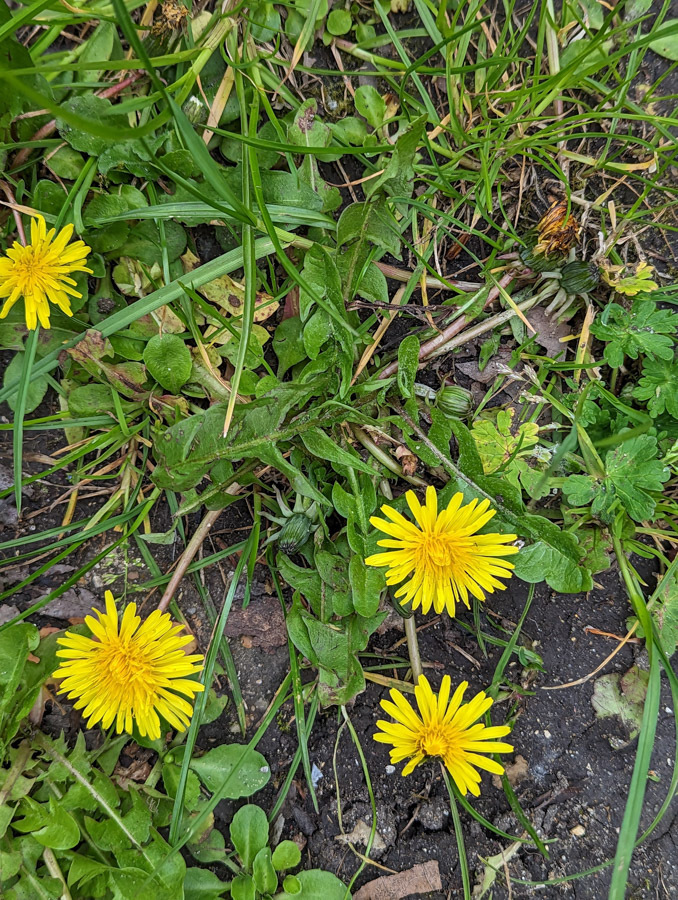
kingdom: Plantae
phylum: Tracheophyta
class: Magnoliopsida
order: Asterales
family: Asteraceae
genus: Taraxacum
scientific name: Taraxacum officinale
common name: Common dandelion
